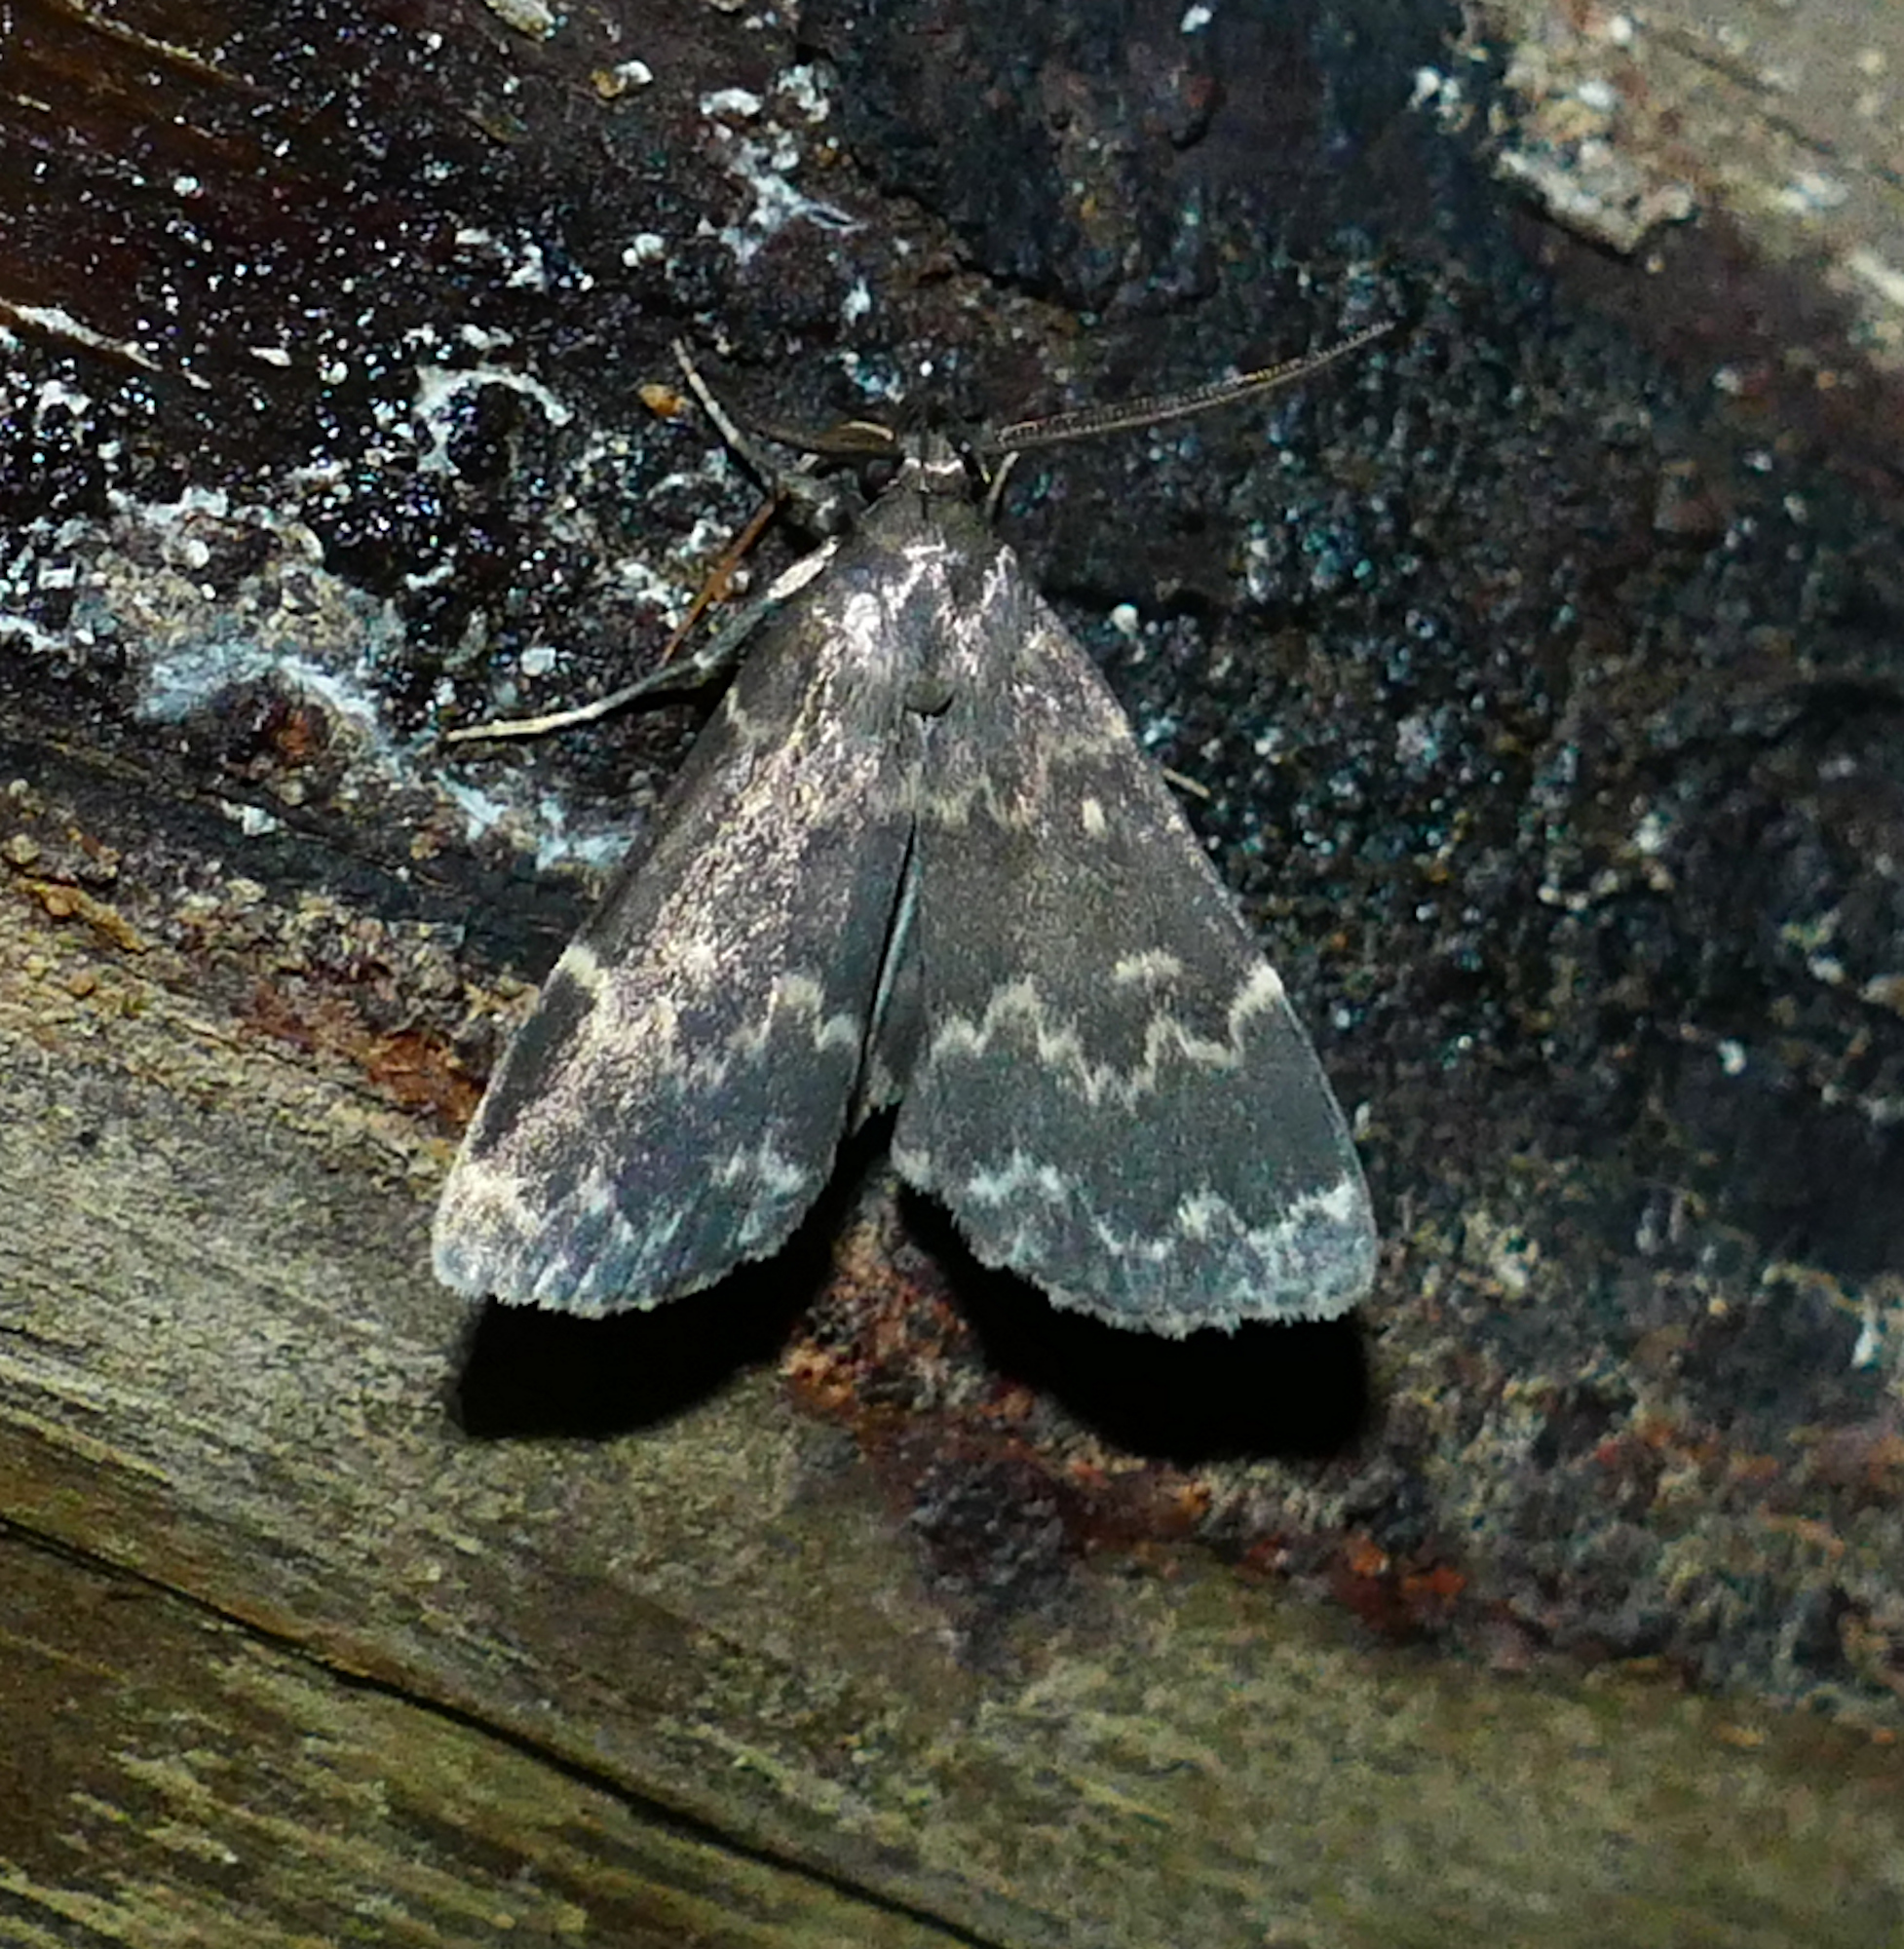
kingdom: Animalia
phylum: Arthropoda
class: Insecta
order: Lepidoptera
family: Erebidae
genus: Idia
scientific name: Idia lubricalis
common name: Twin-striped tabby
